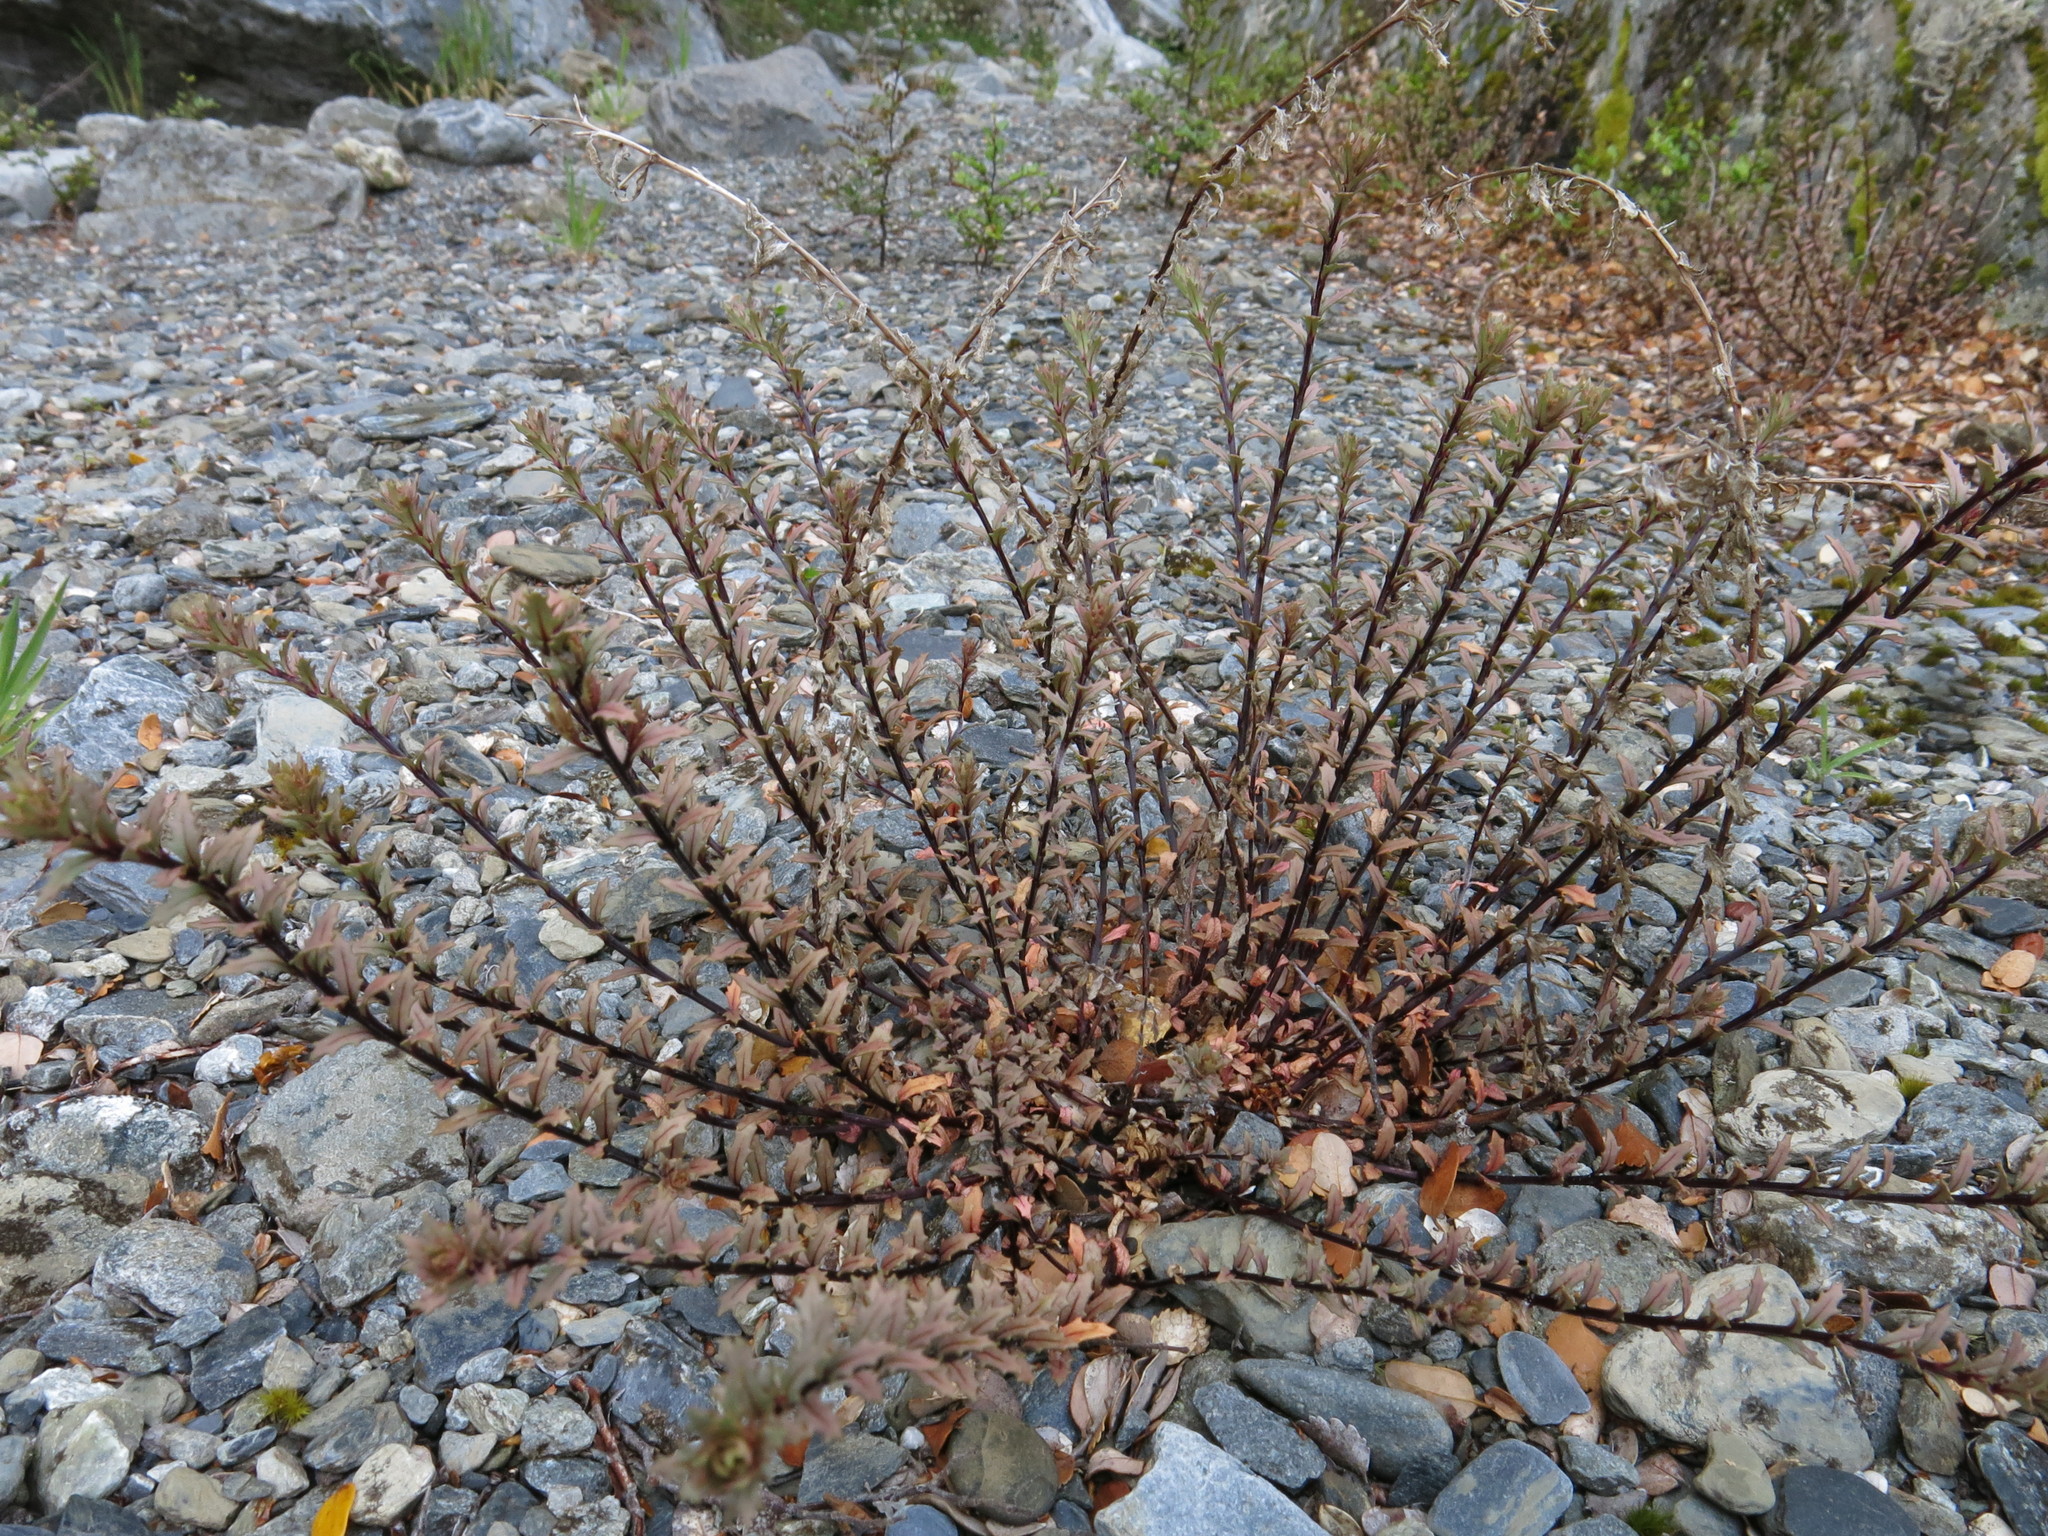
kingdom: Plantae
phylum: Tracheophyta
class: Magnoliopsida
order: Myrtales
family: Onagraceae
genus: Epilobium
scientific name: Epilobium melanocaulon
